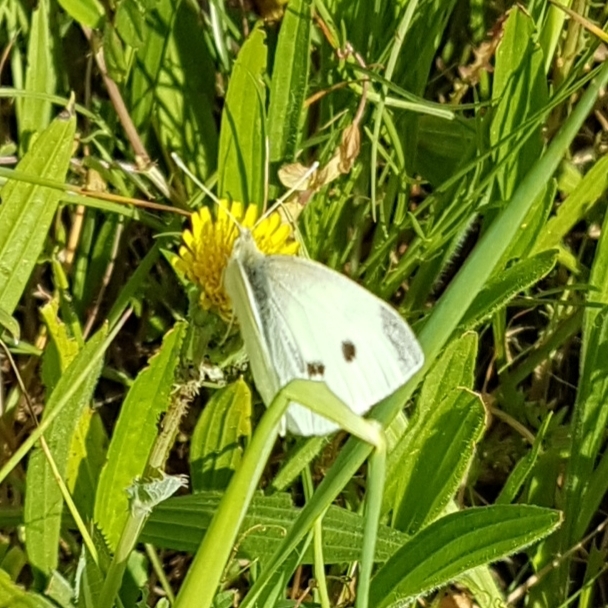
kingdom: Animalia
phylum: Arthropoda
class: Insecta
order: Lepidoptera
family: Pieridae
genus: Pieris
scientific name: Pieris rapae
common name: Small white
